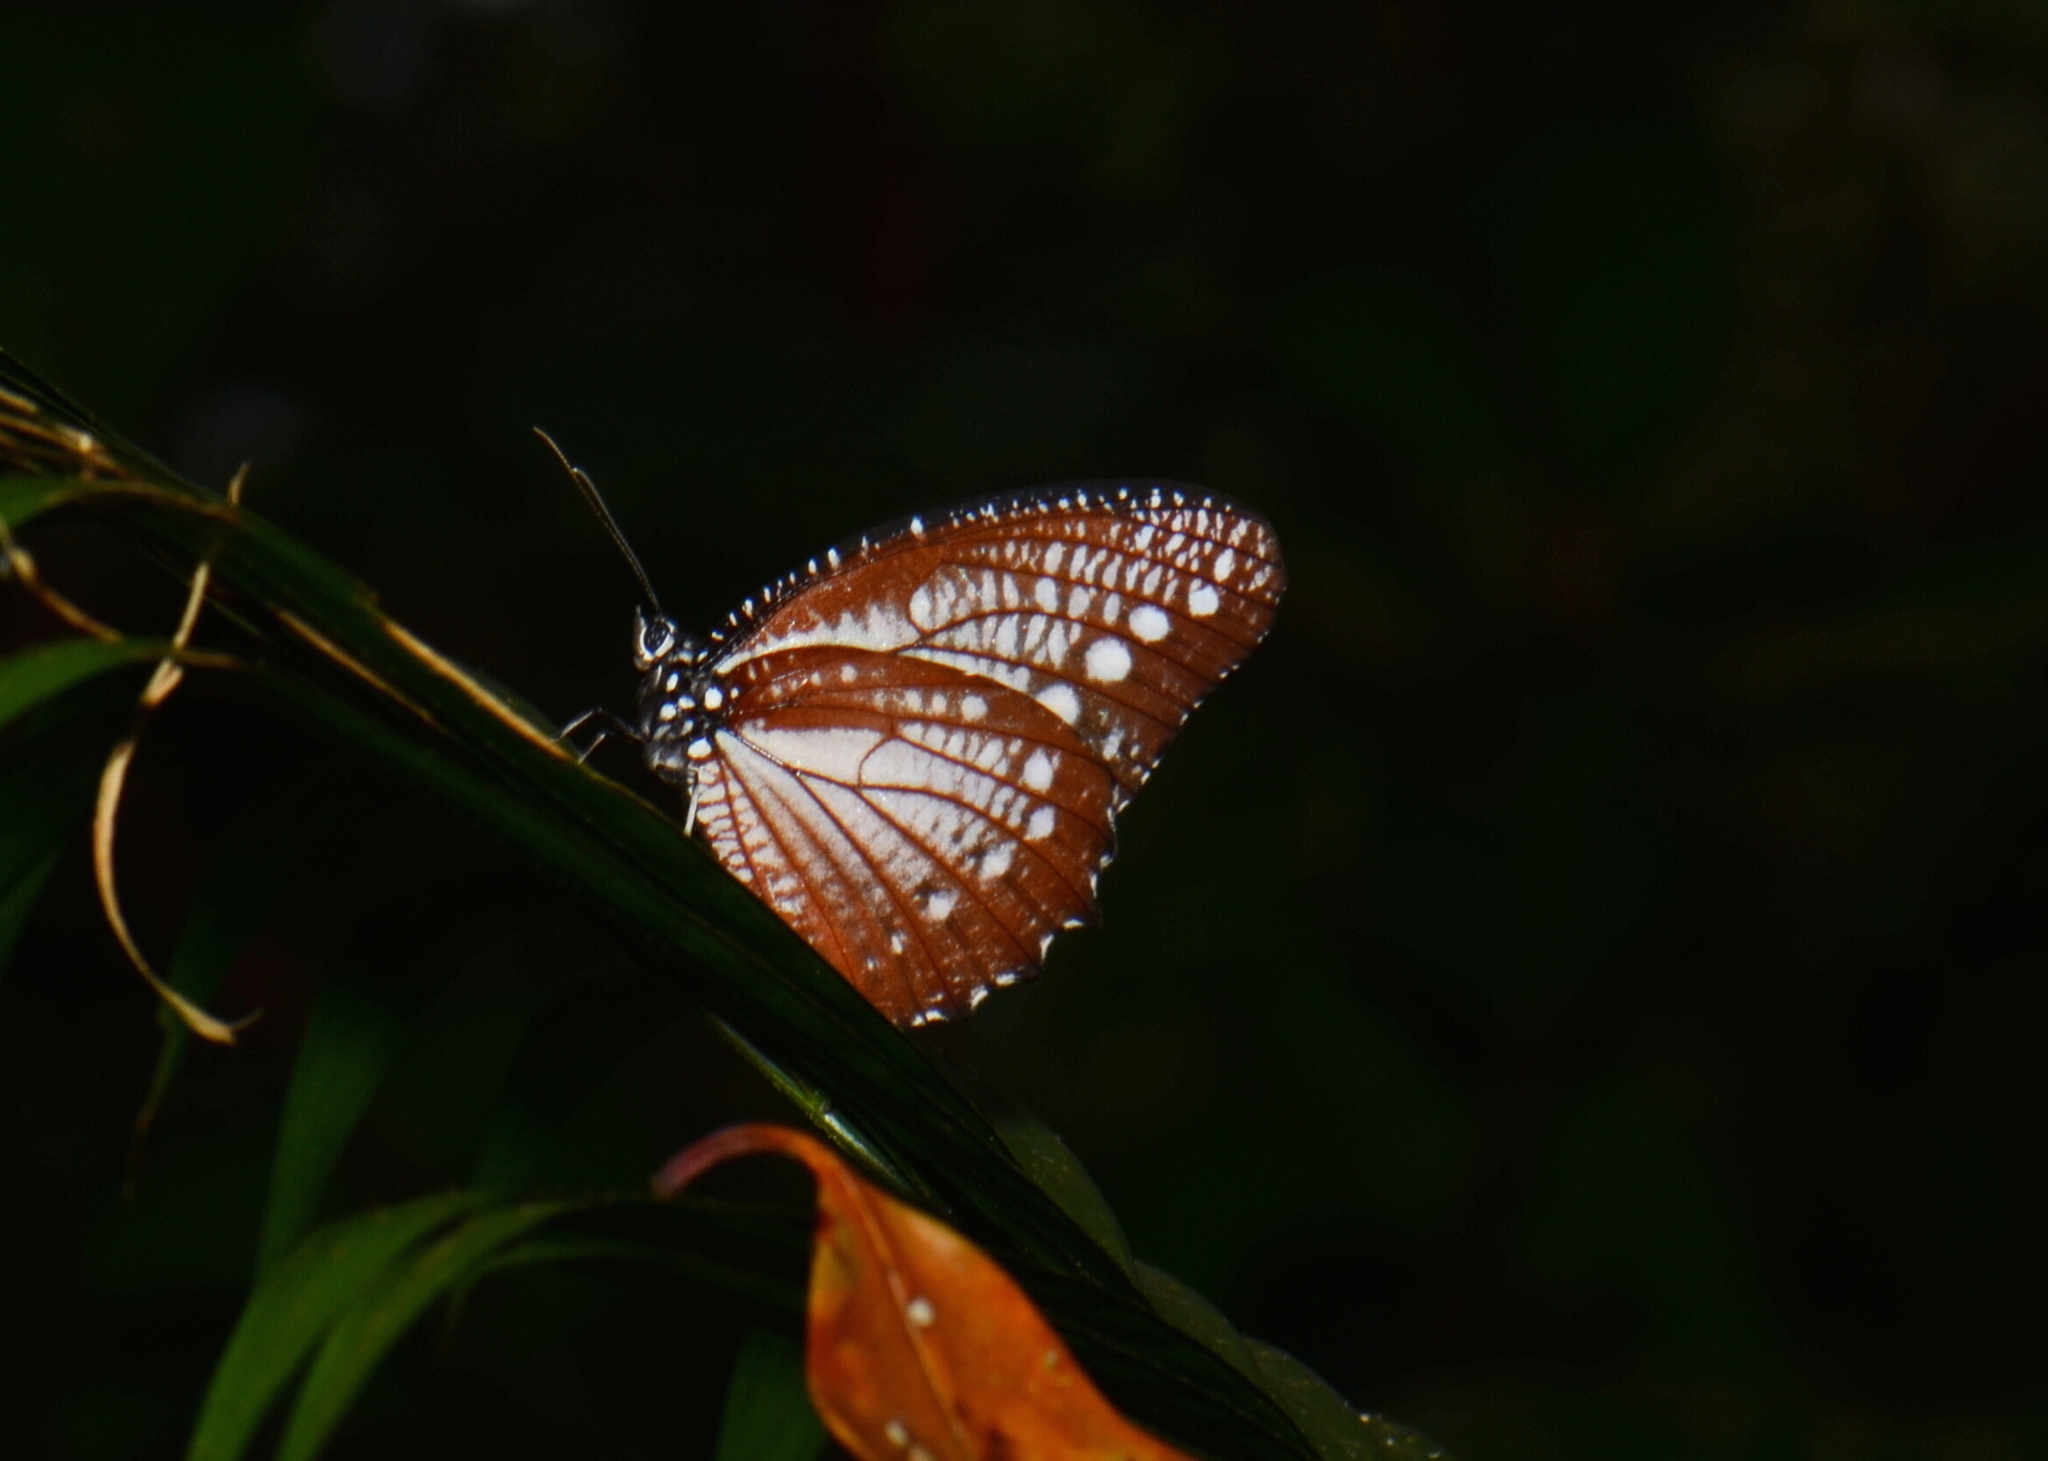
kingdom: Animalia
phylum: Arthropoda
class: Insecta
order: Lepidoptera
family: Nymphalidae
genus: Elymnias
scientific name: Elymnias
